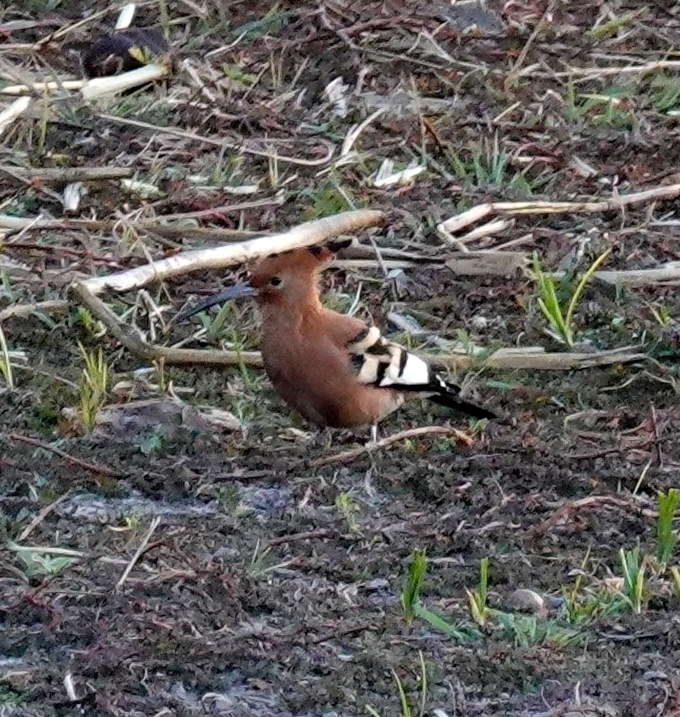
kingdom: Animalia
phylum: Chordata
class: Aves
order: Bucerotiformes
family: Upupidae
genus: Upupa
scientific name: Upupa africana
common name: African hoopoe
